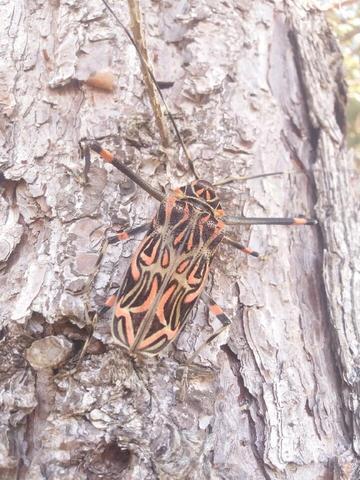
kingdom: Animalia
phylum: Arthropoda
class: Insecta
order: Coleoptera
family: Cerambycidae
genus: Acrocinus
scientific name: Acrocinus longimanus
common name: Arlequin
